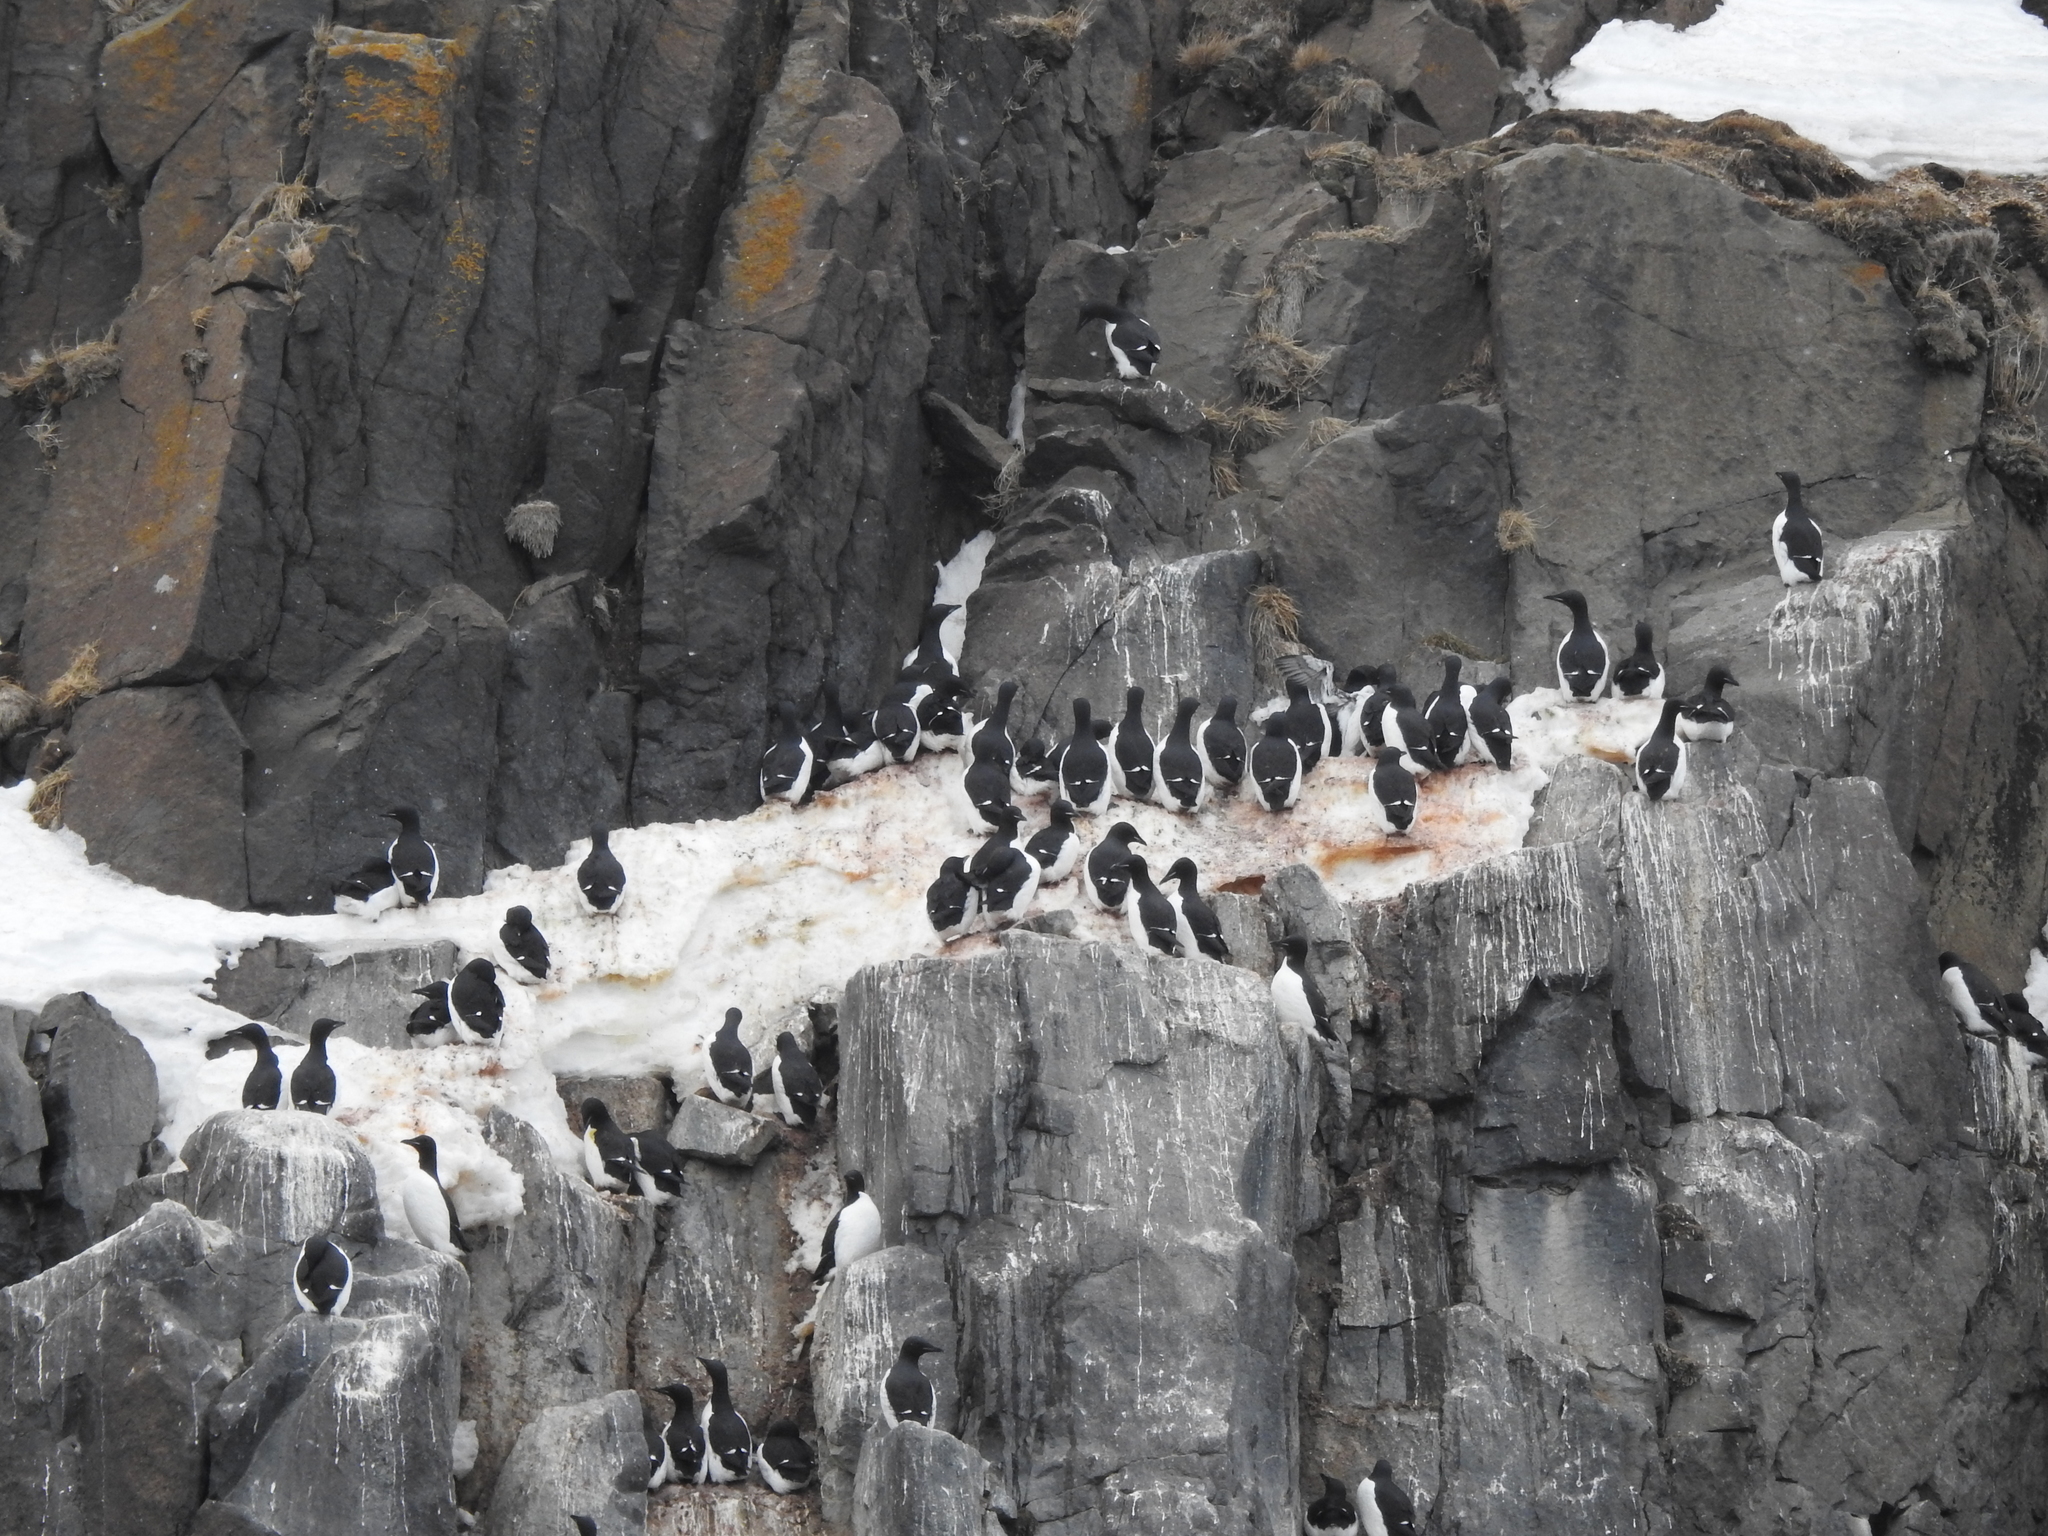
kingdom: Animalia
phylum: Chordata
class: Aves
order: Charadriiformes
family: Alcidae
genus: Uria
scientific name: Uria lomvia
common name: Thick-billed murre
